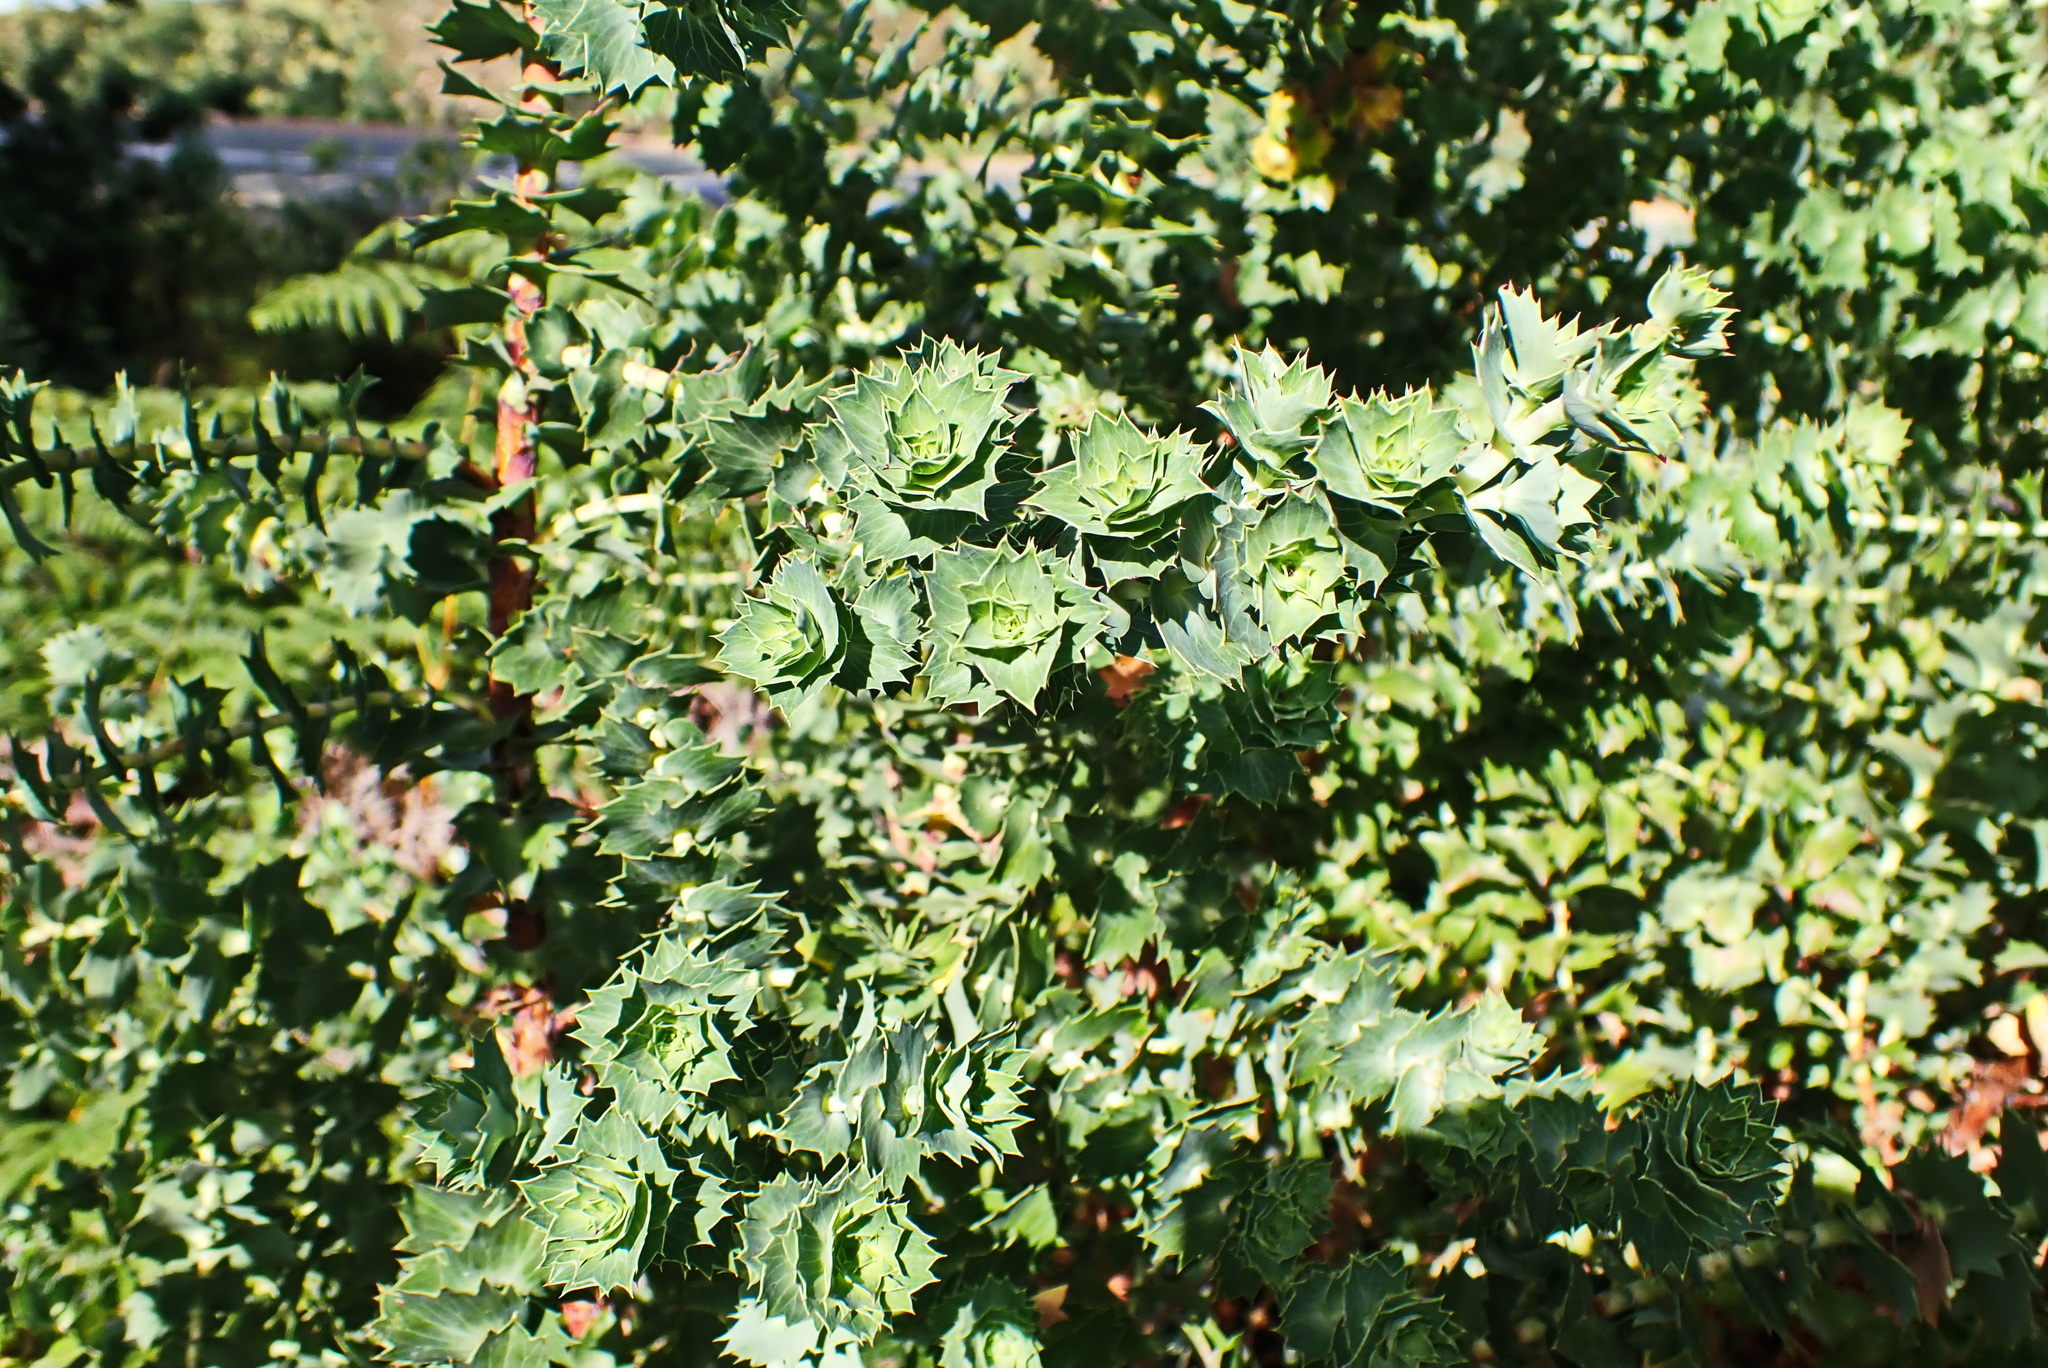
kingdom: Plantae
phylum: Tracheophyta
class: Magnoliopsida
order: Rosales
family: Rosaceae
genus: Cliffortia
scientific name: Cliffortia reniformis
